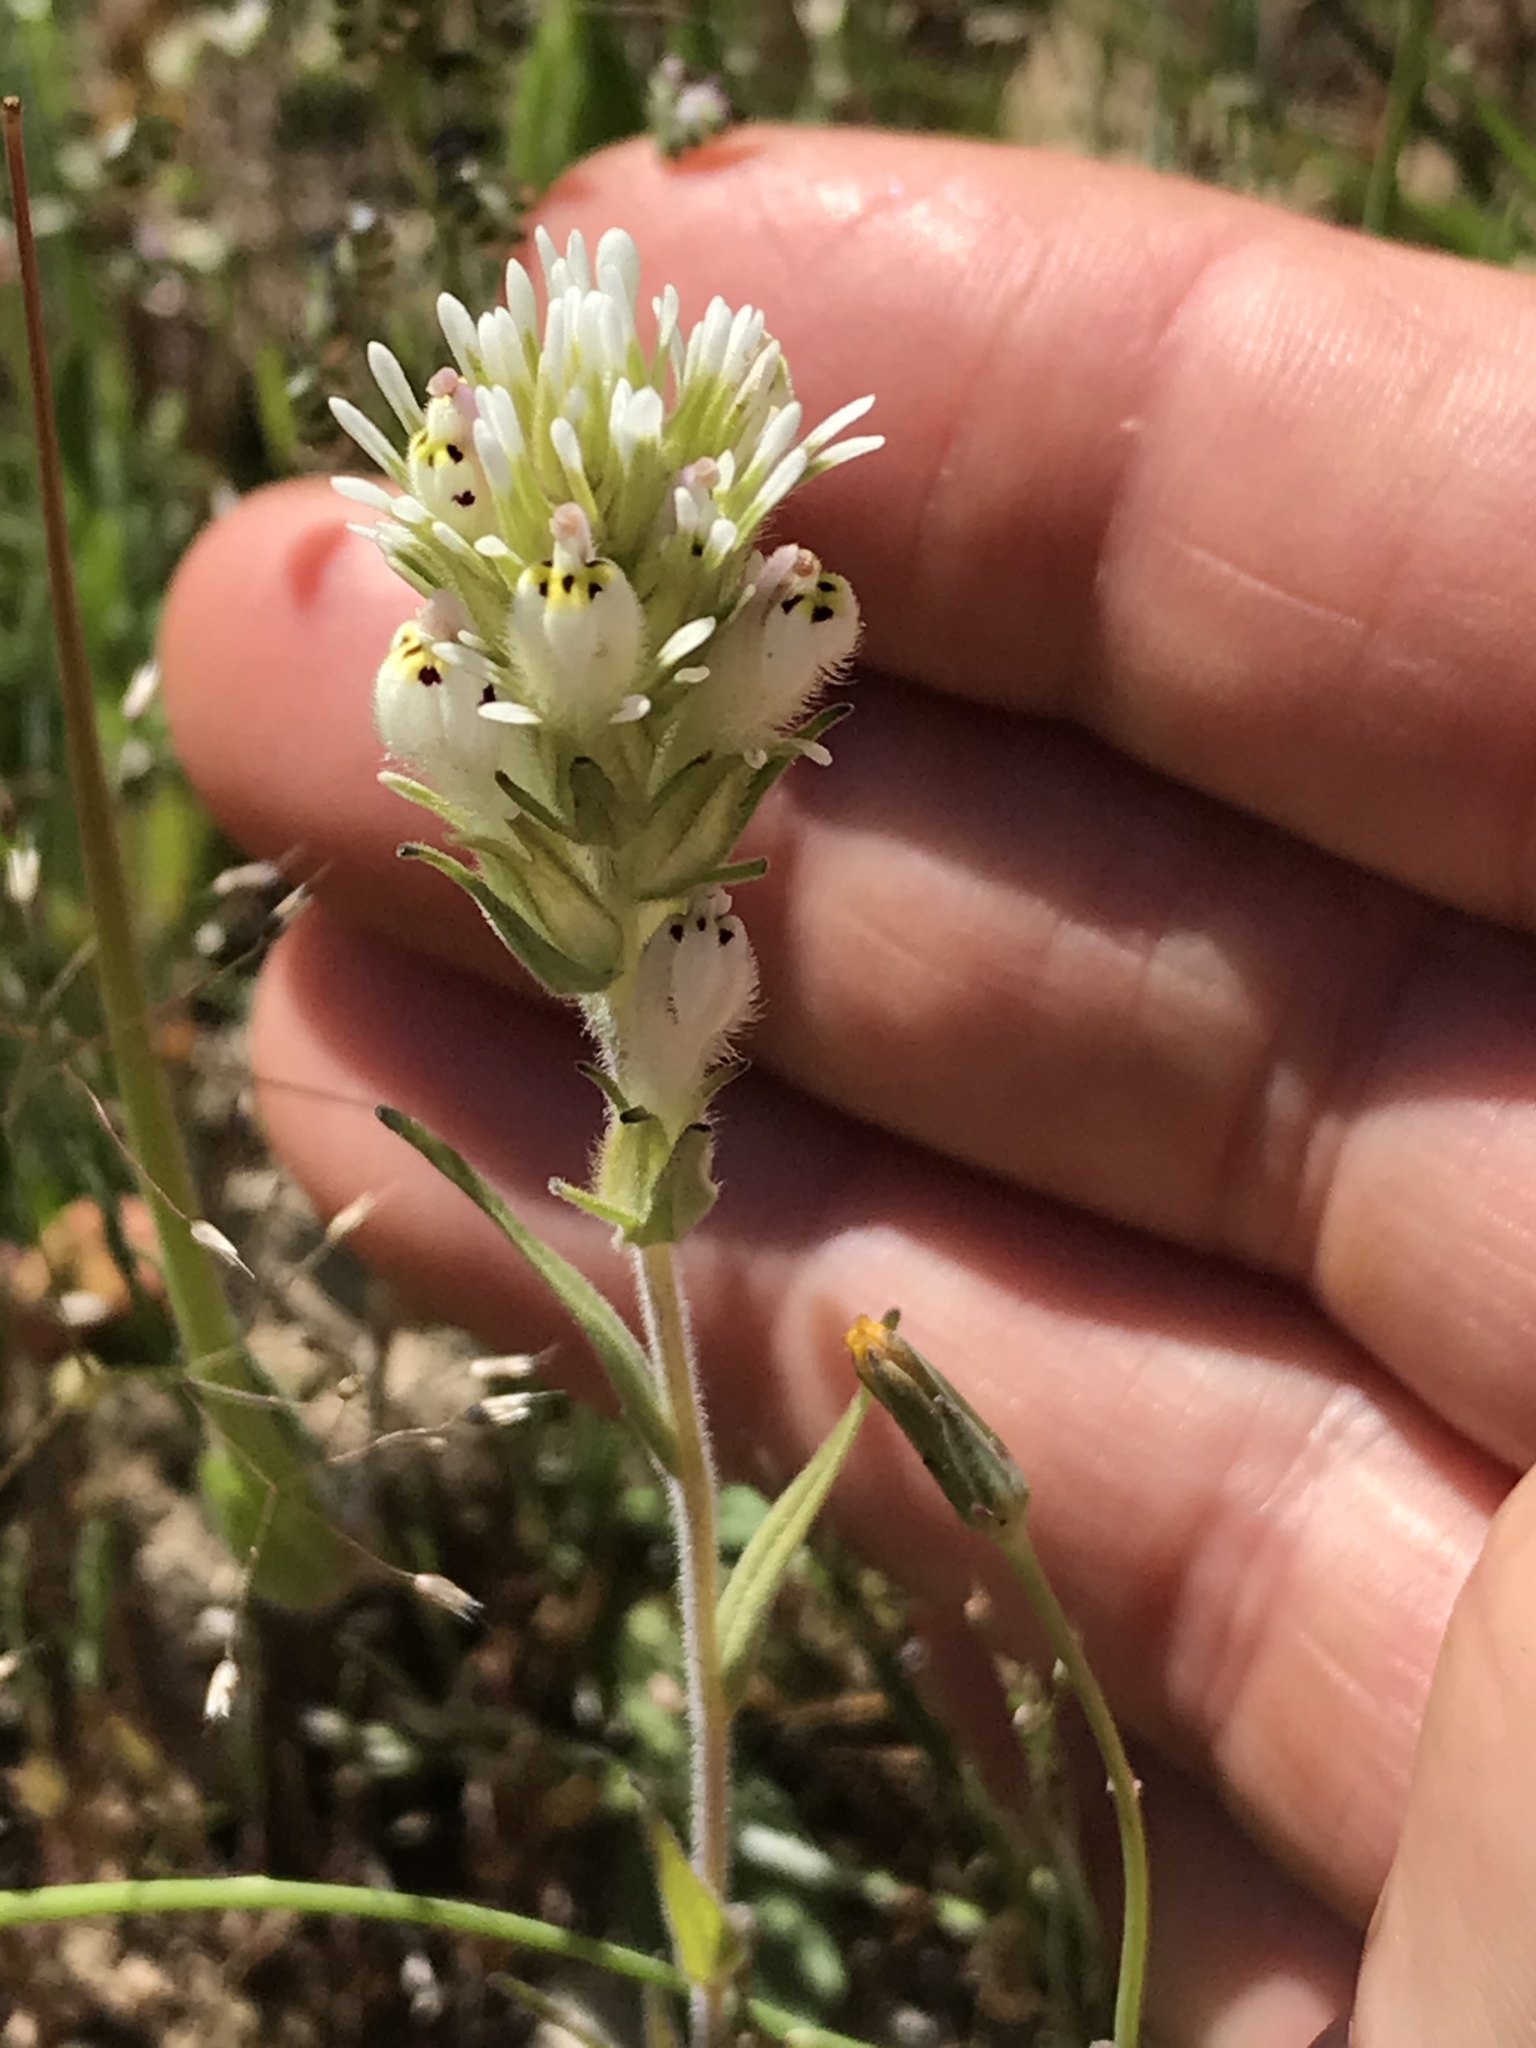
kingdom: Plantae
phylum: Tracheophyta
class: Magnoliopsida
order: Lamiales
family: Orobanchaceae
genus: Castilleja
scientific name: Castilleja densiflora
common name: Dense-flower indian paintbrush
